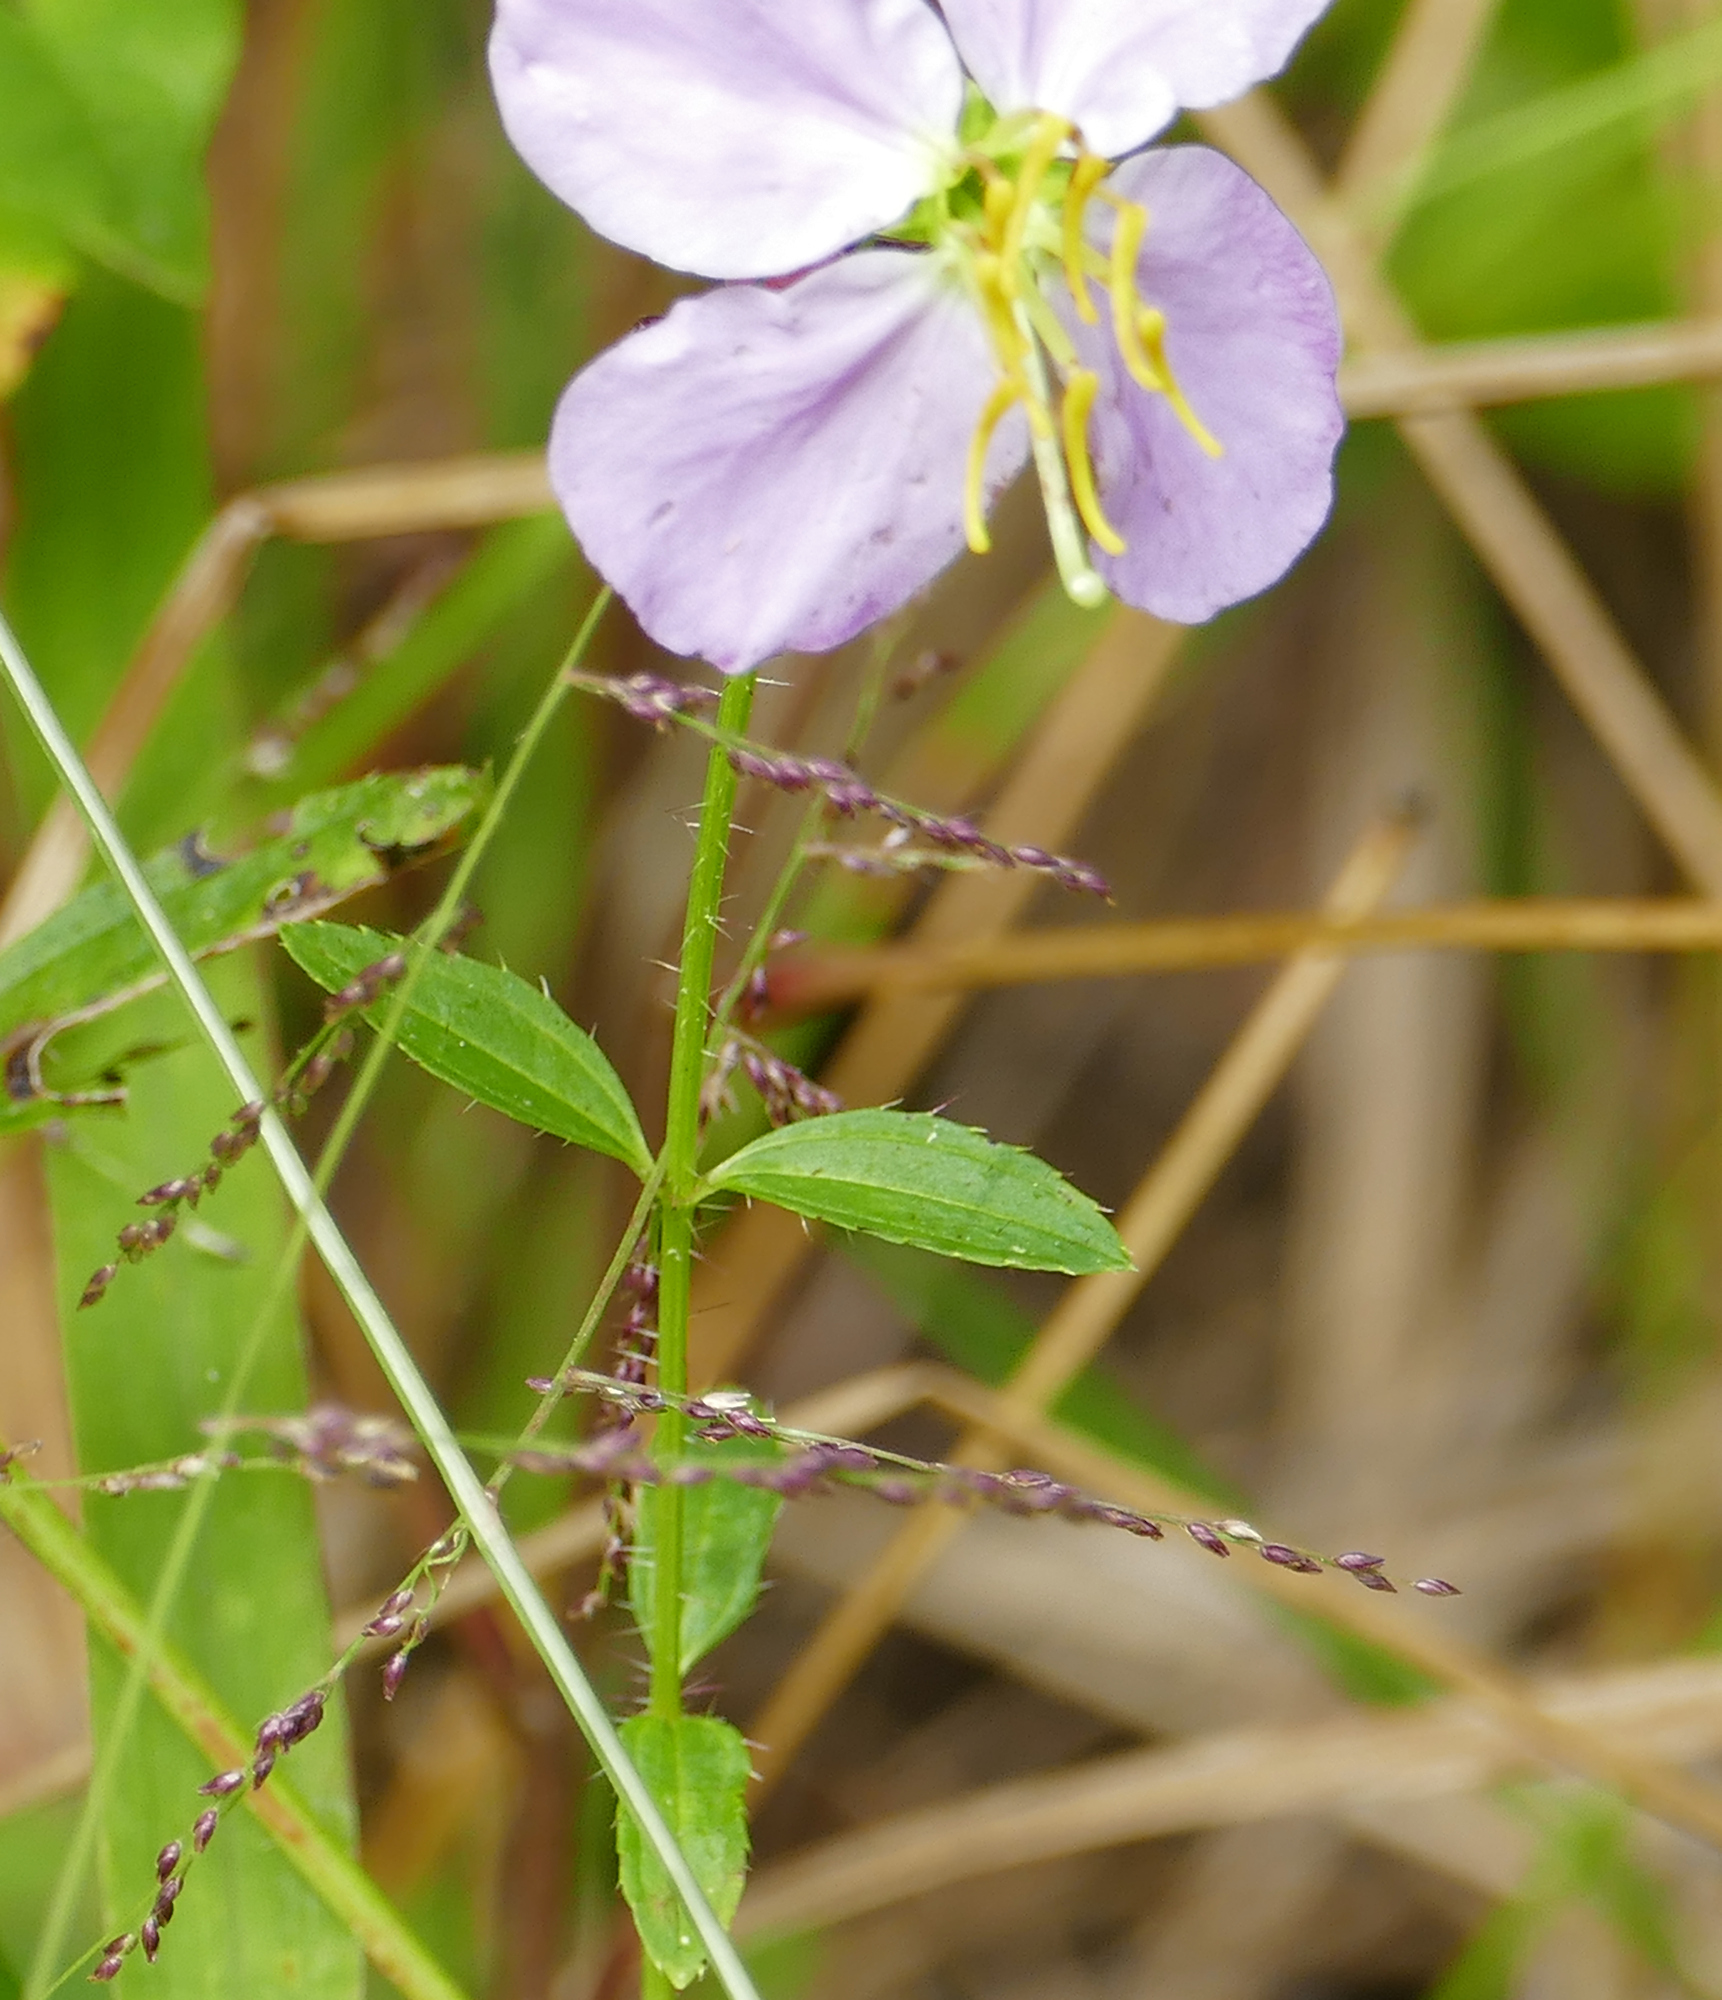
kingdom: Plantae
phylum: Tracheophyta
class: Magnoliopsida
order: Myrtales
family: Melastomataceae
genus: Rhexia
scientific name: Rhexia mariana
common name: Dull meadow-pitcher
